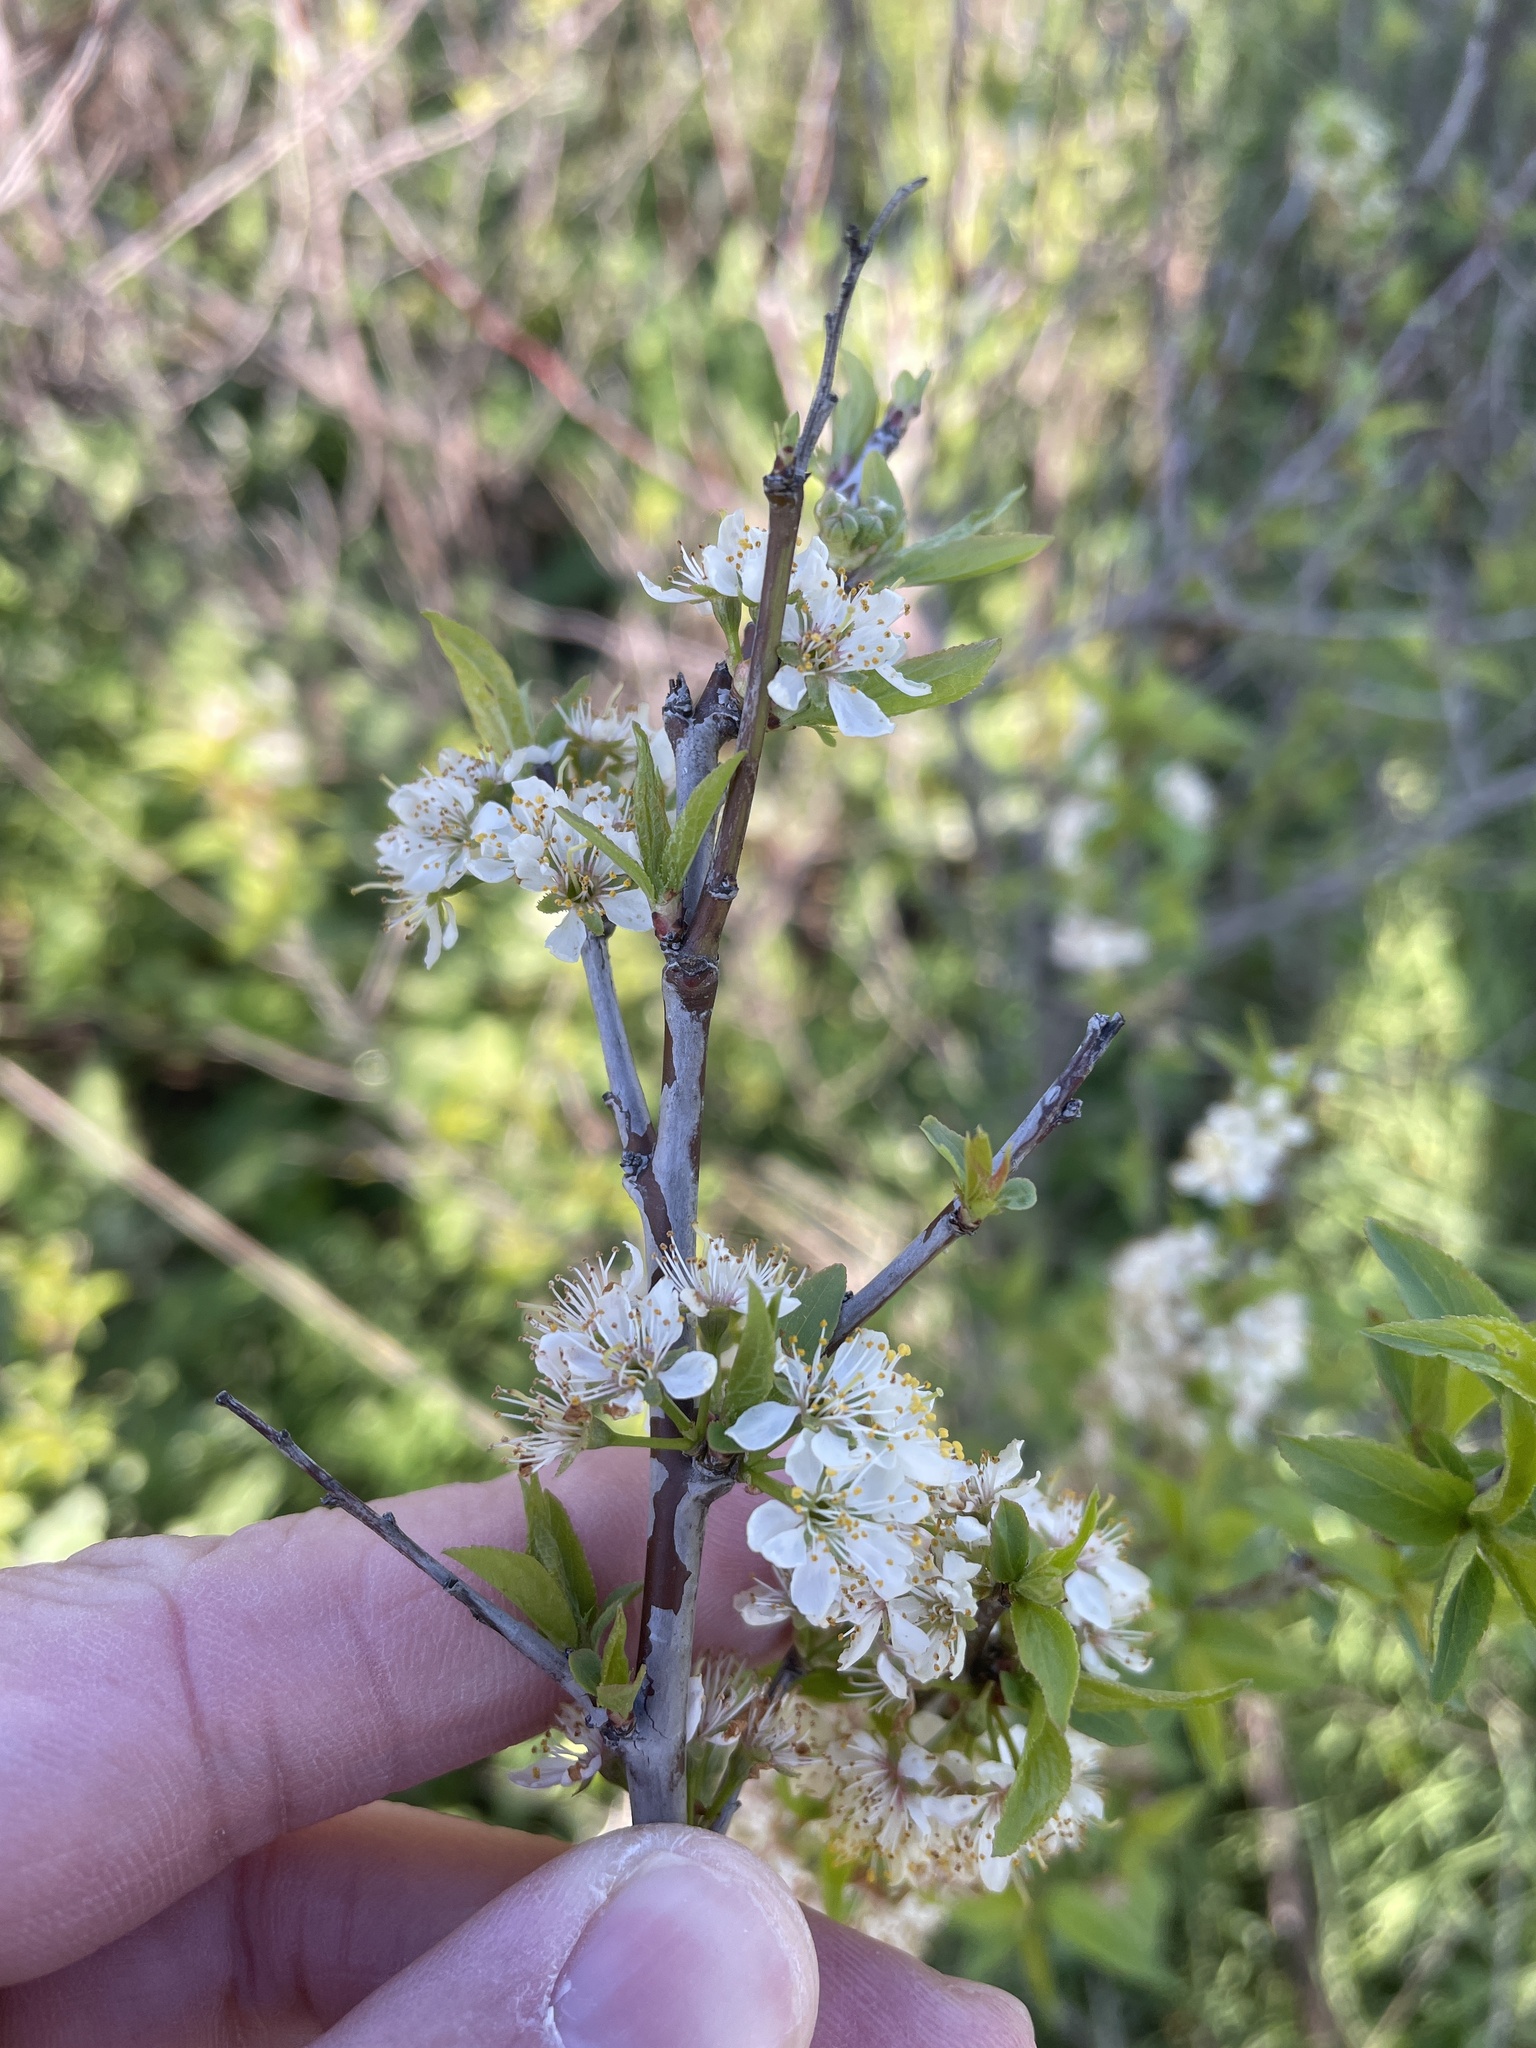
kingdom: Plantae
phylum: Tracheophyta
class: Magnoliopsida
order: Rosales
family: Rosaceae
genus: Prunus
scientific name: Prunus rivularis
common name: Creek plum
